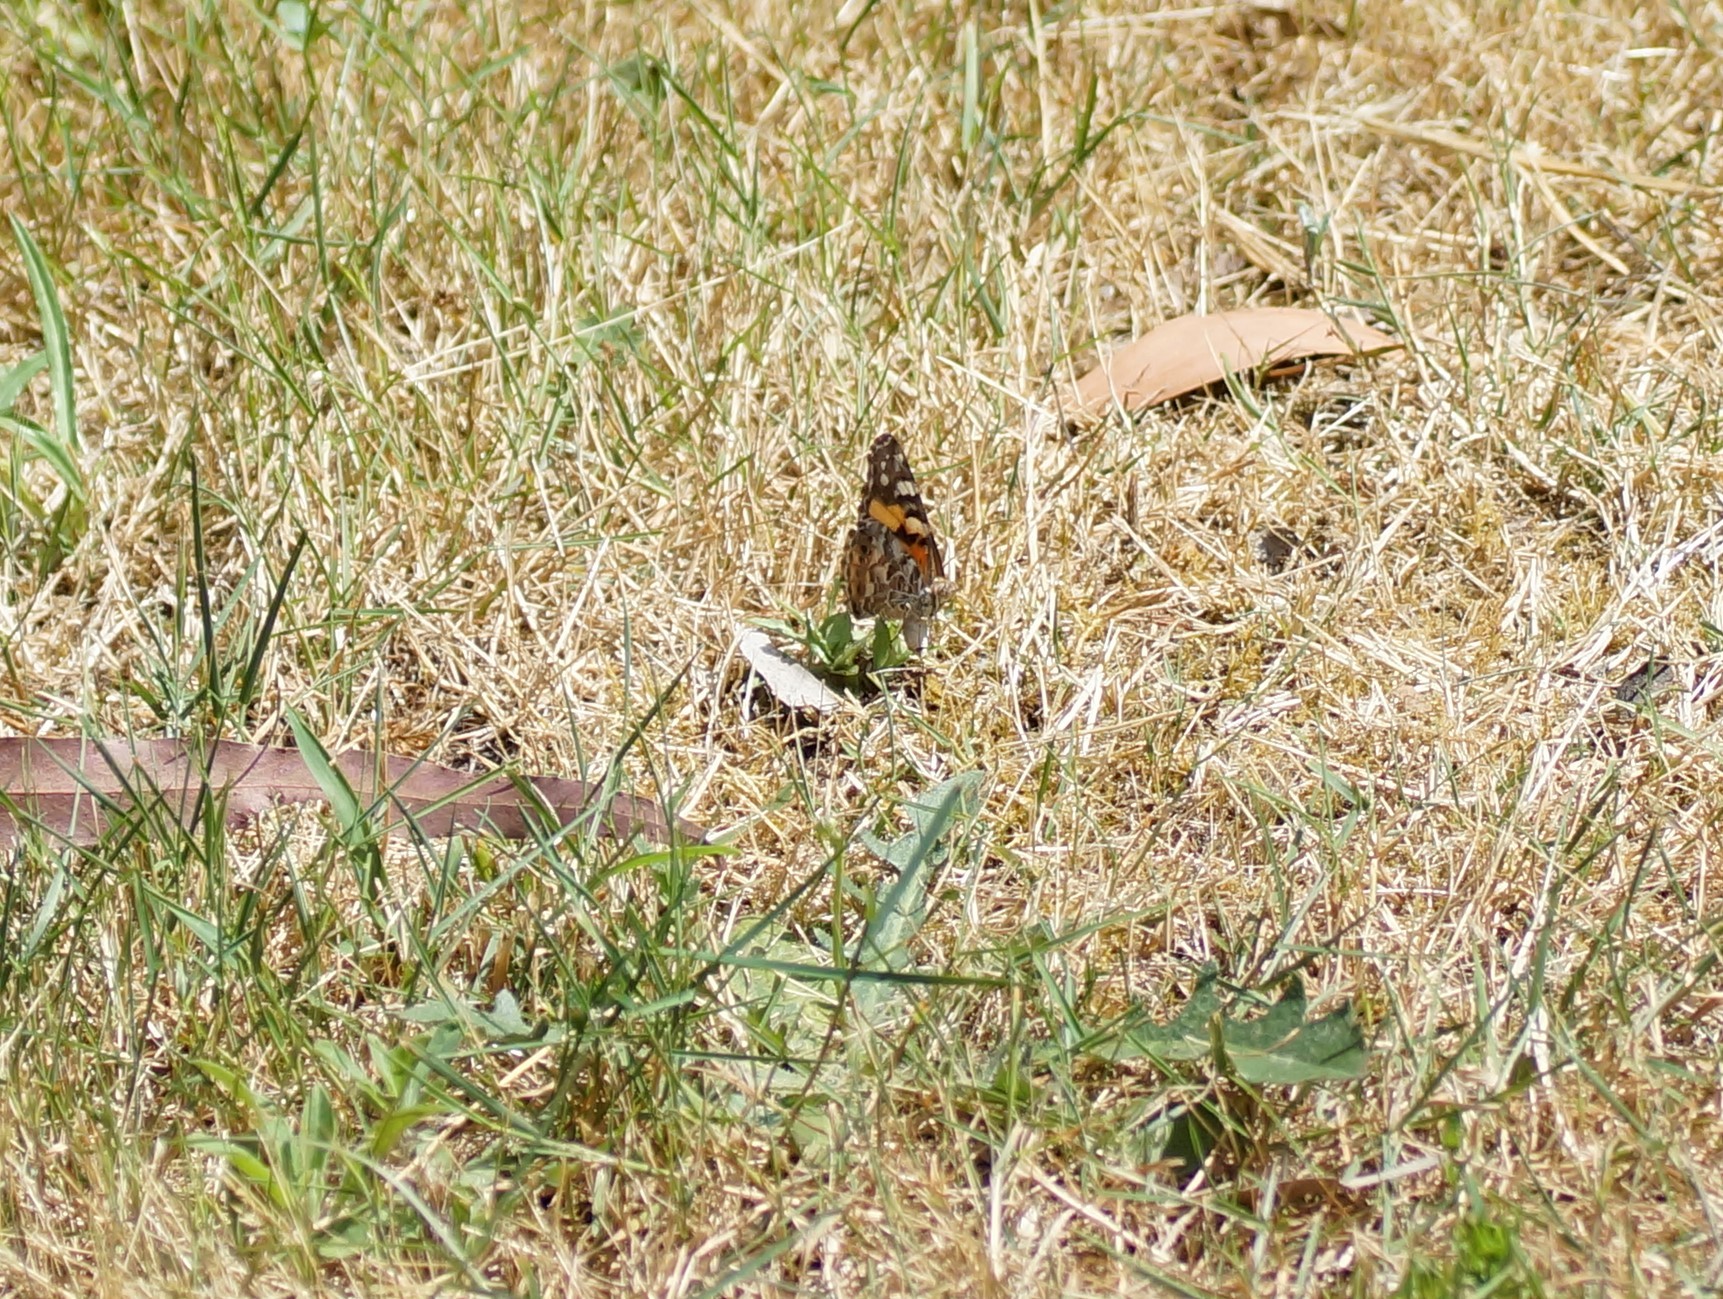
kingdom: Animalia
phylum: Arthropoda
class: Insecta
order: Lepidoptera
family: Nymphalidae
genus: Vanessa
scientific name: Vanessa kershawi
